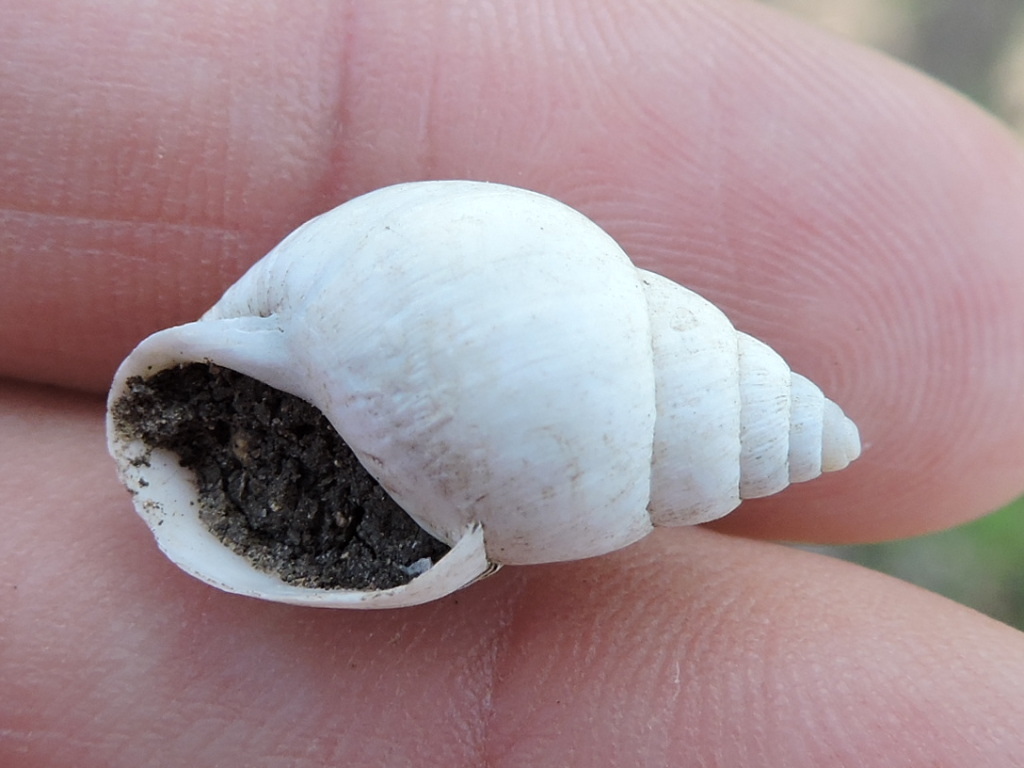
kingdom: Animalia
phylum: Mollusca
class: Gastropoda
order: Stylommatophora
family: Bulimulidae
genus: Rabdotus
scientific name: Rabdotus mooreanus
